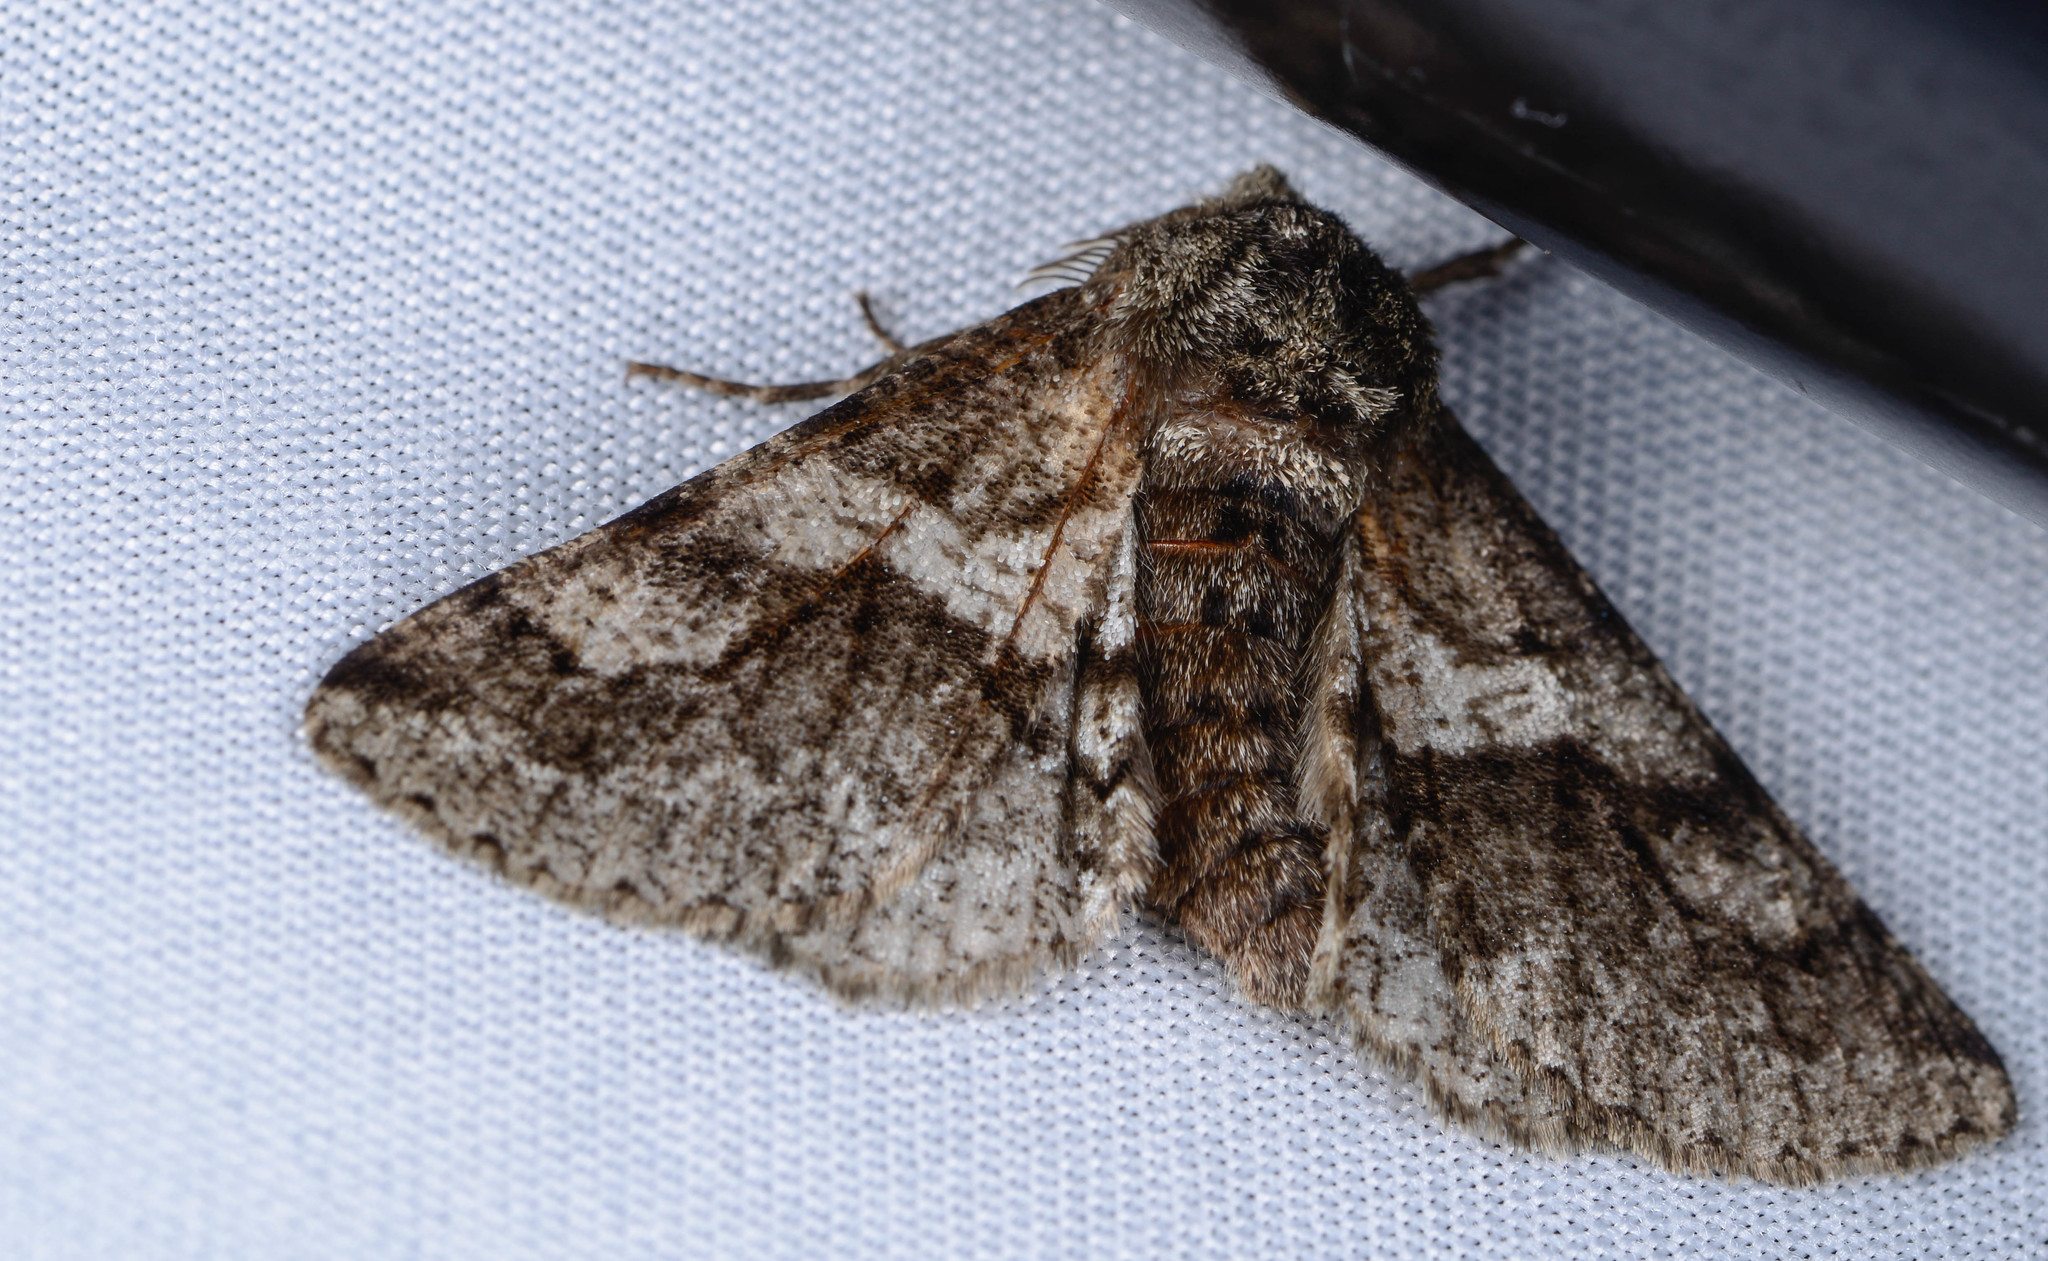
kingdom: Animalia
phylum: Arthropoda
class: Insecta
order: Lepidoptera
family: Geometridae
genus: Lycia
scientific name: Lycia ypsilon
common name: Wooly gray
